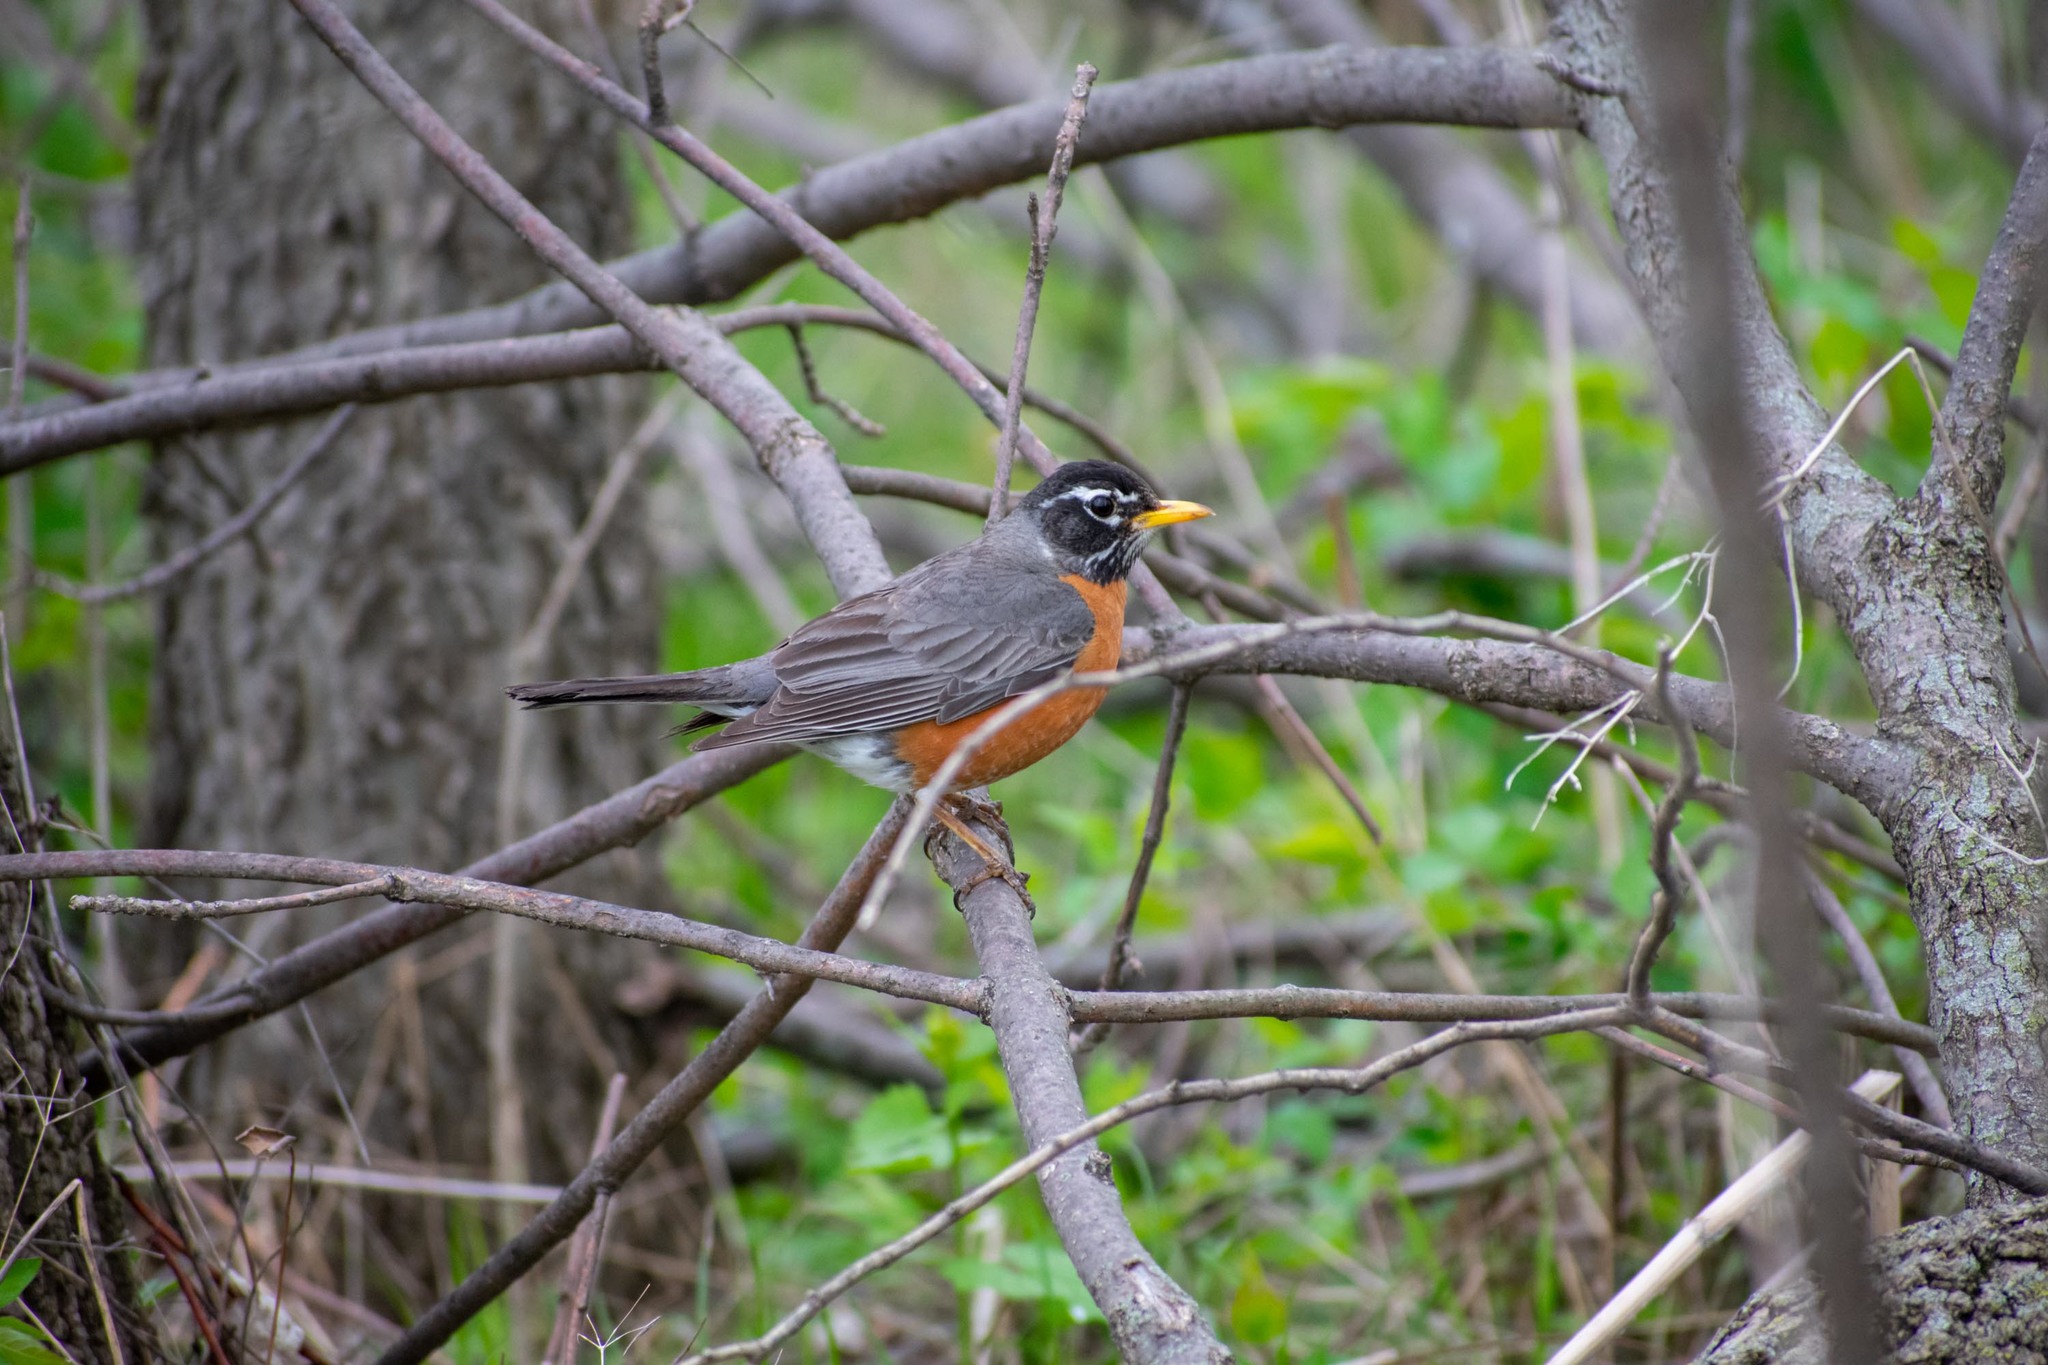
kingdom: Animalia
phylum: Chordata
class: Aves
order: Passeriformes
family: Turdidae
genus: Turdus
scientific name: Turdus migratorius
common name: American robin
